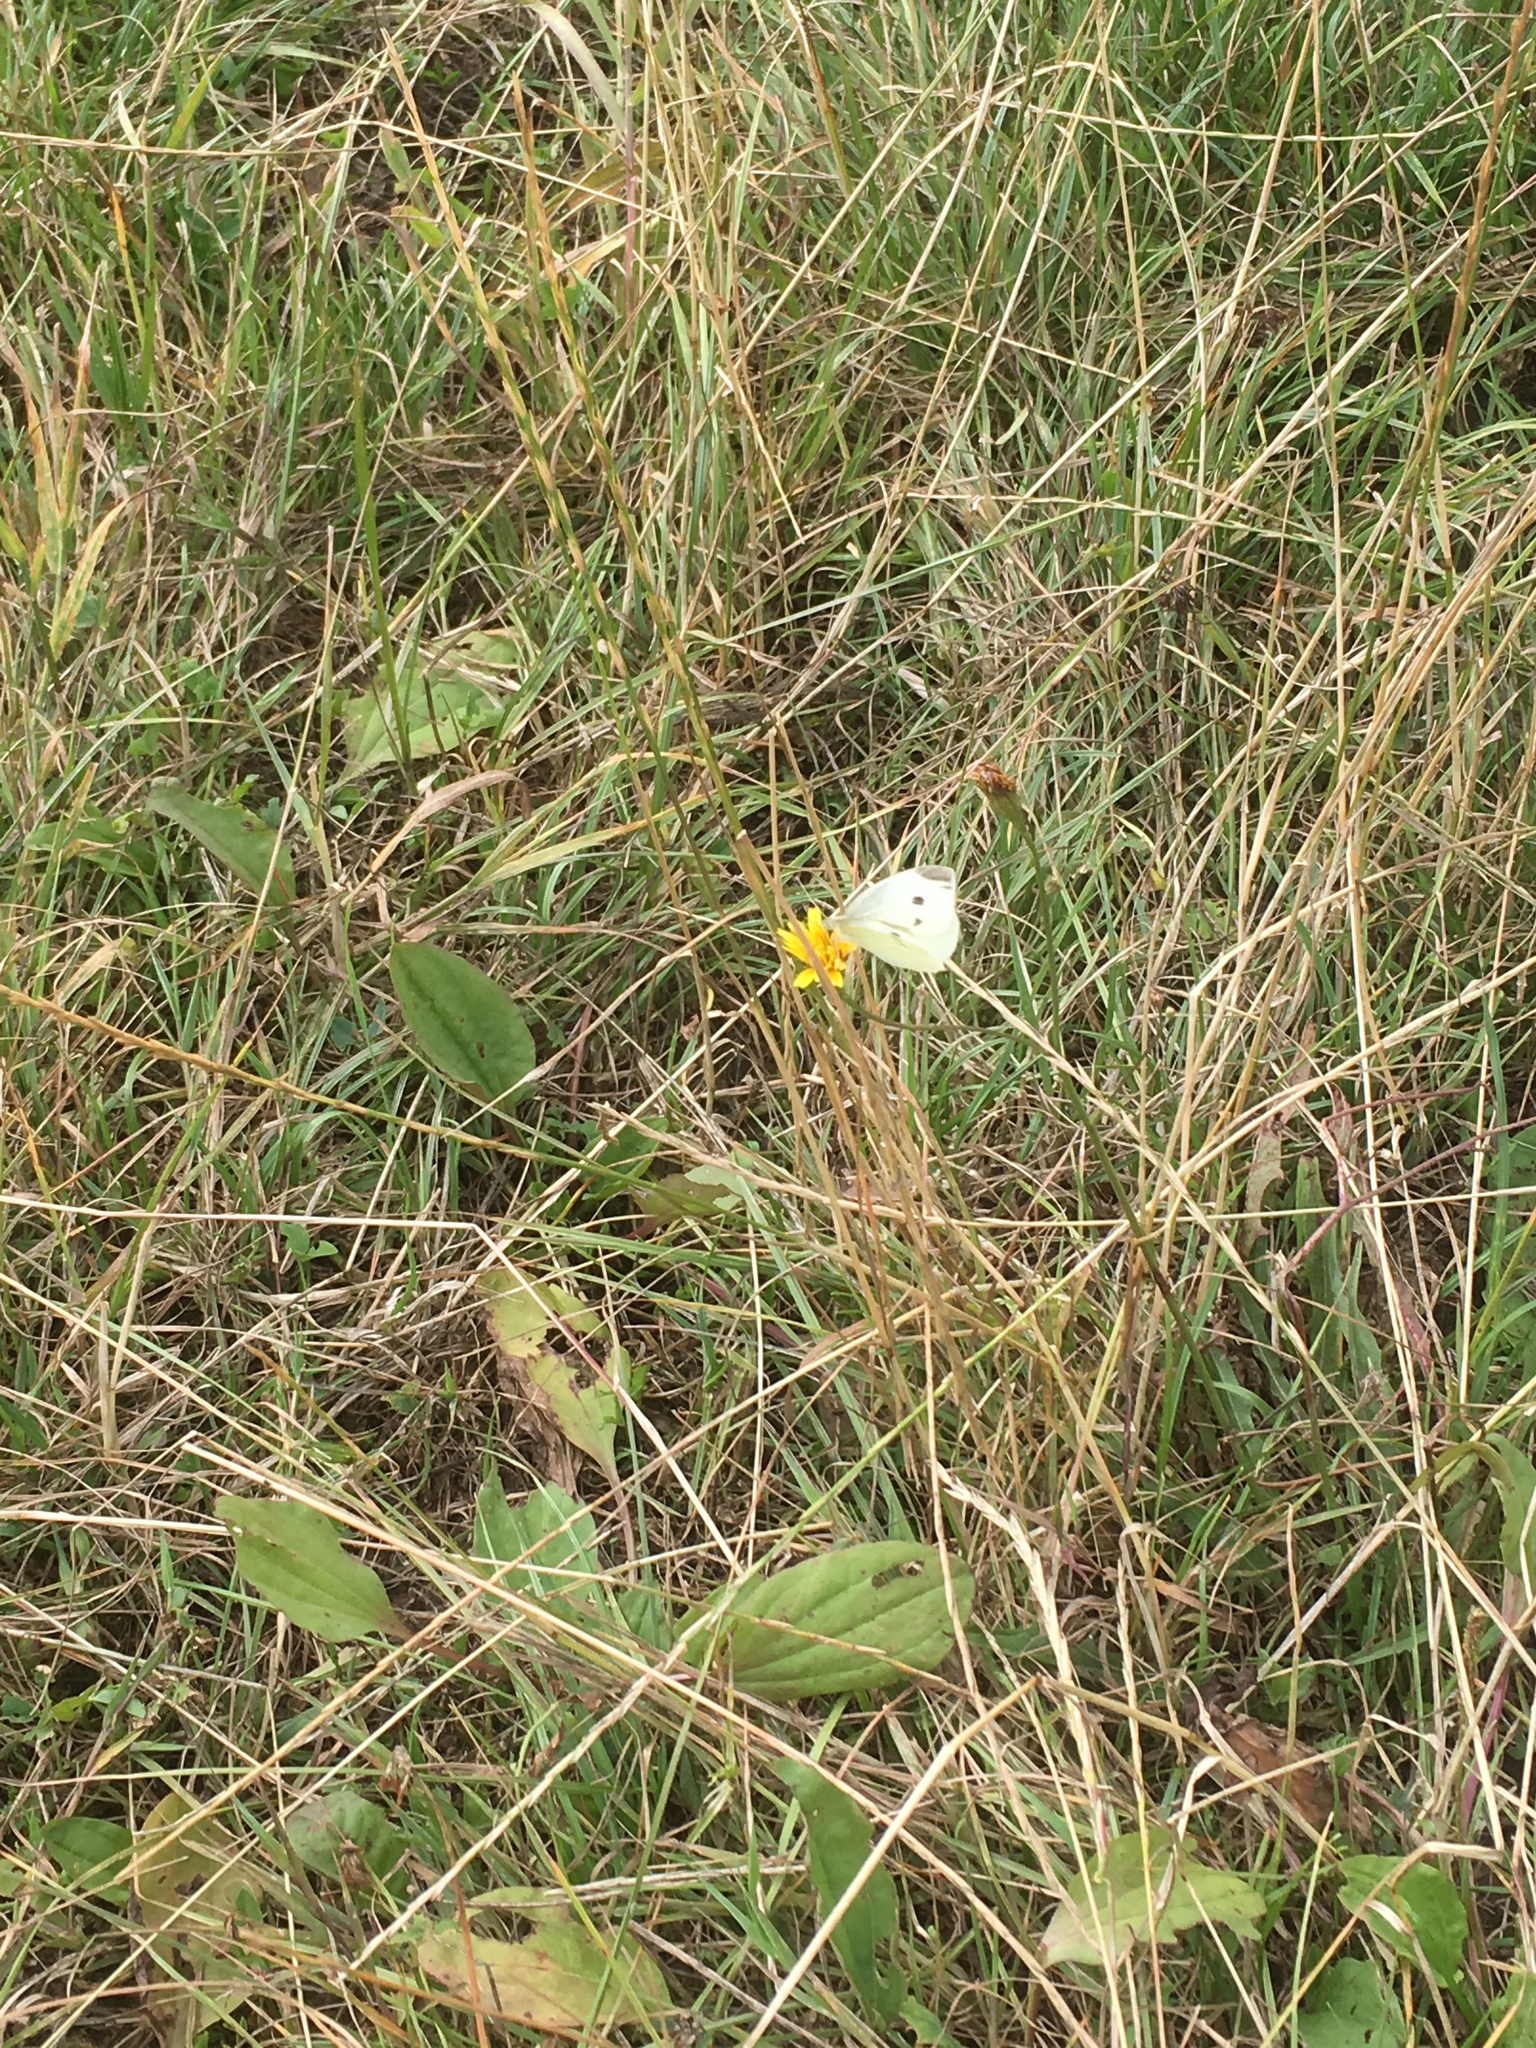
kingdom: Animalia
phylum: Arthropoda
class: Insecta
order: Lepidoptera
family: Pieridae
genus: Pieris
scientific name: Pieris rapae
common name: Small white
